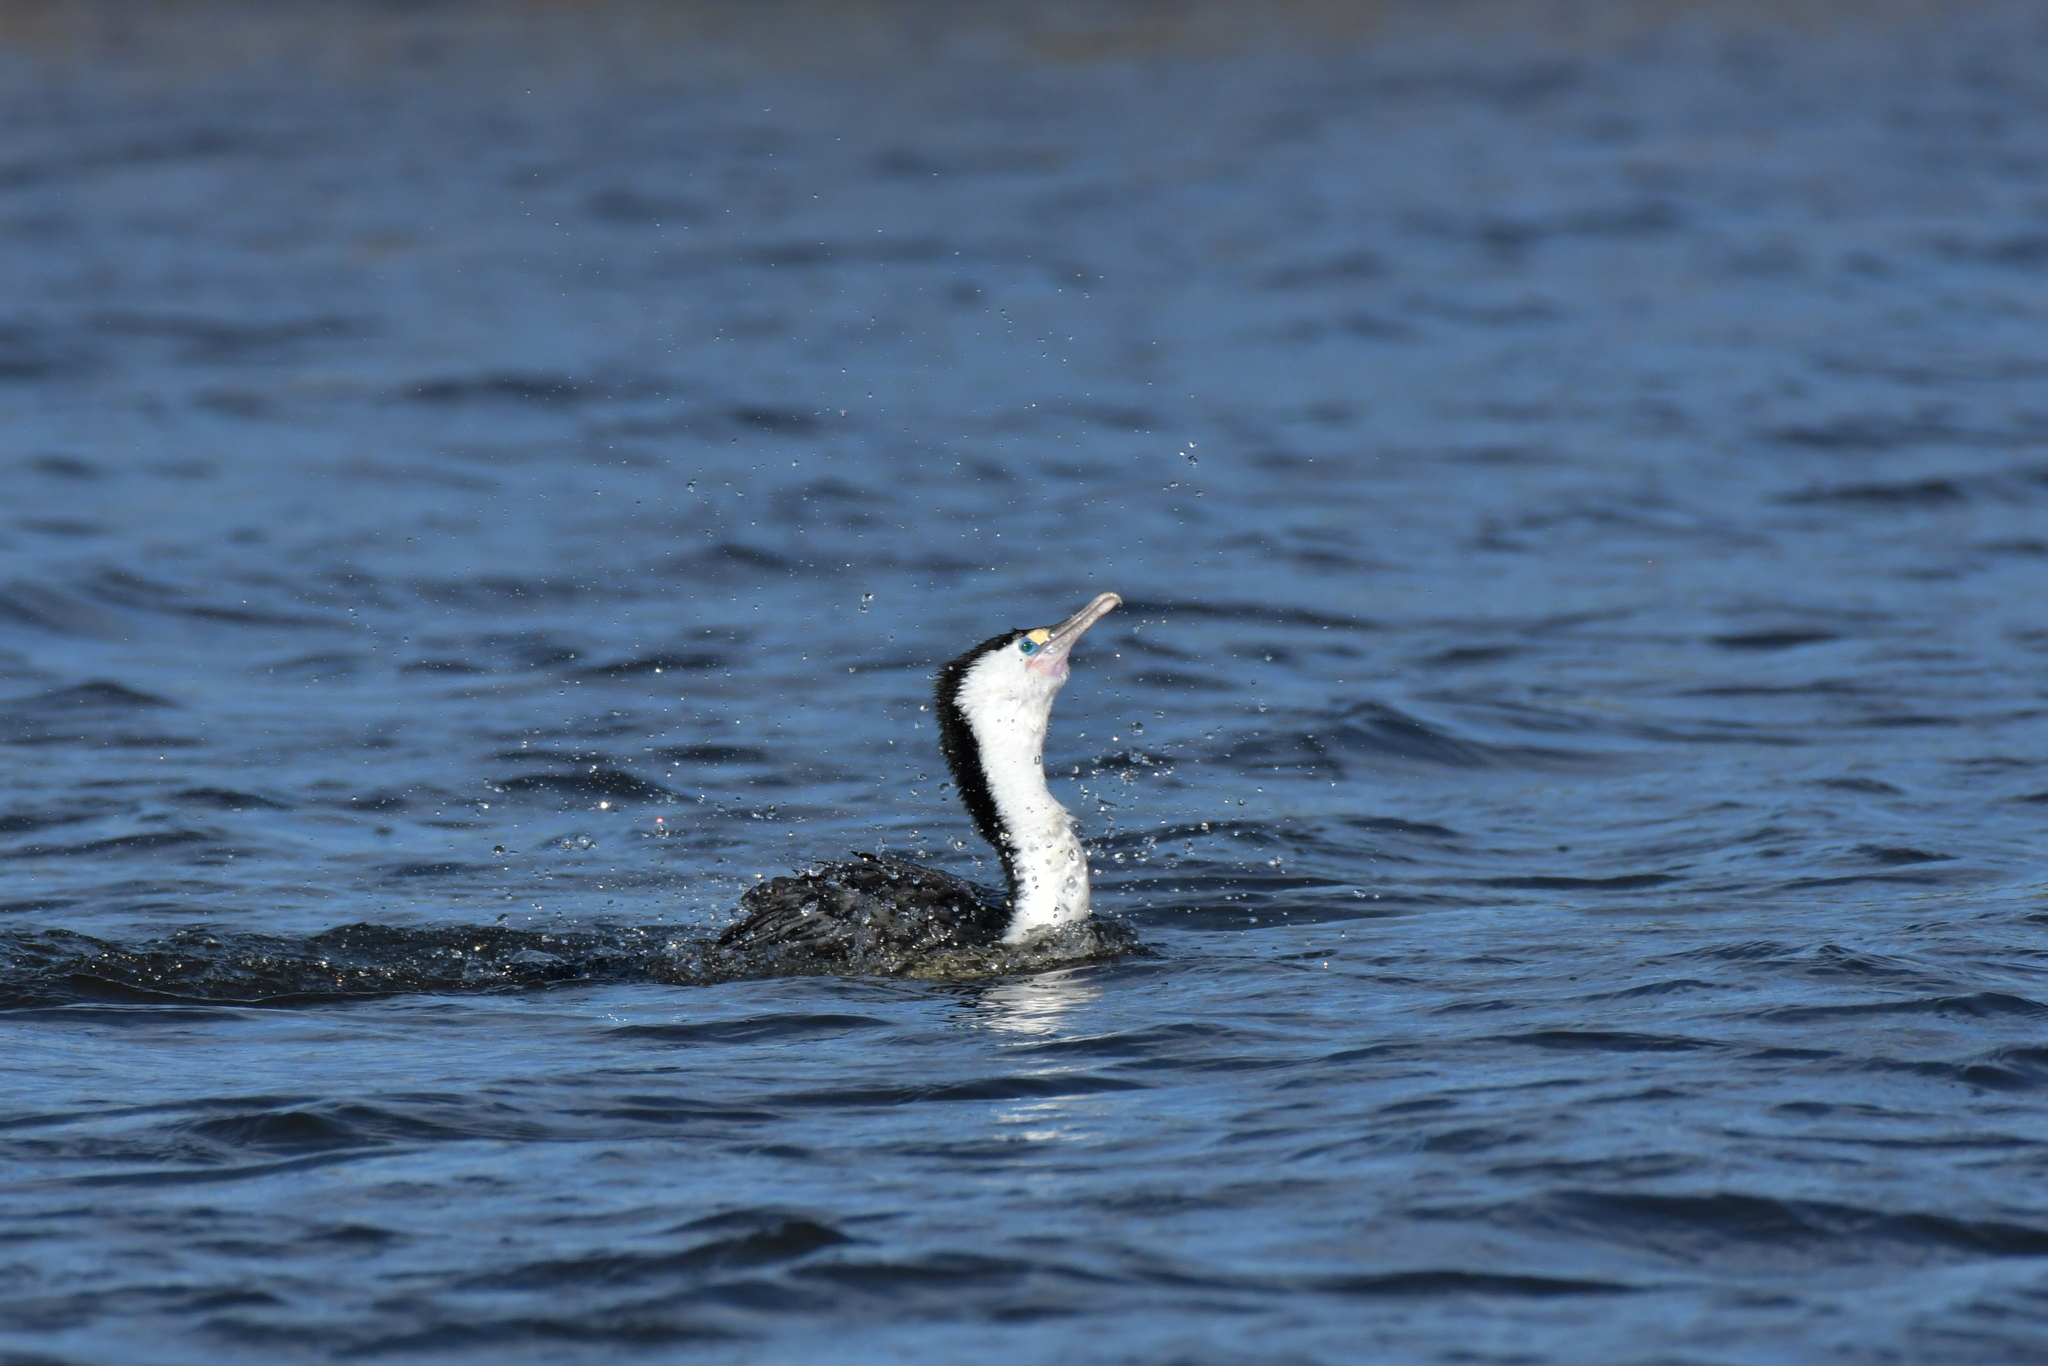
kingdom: Animalia
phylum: Chordata
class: Aves
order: Suliformes
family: Phalacrocoracidae
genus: Phalacrocorax
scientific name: Phalacrocorax varius
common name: Pied cormorant
